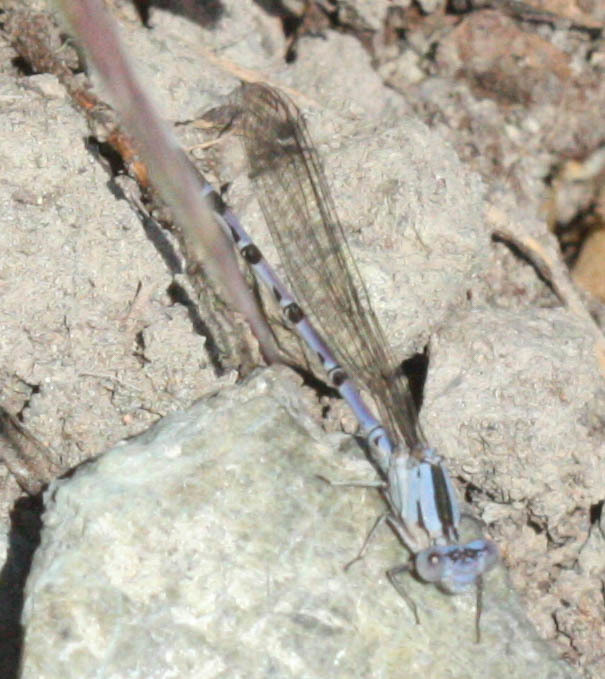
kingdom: Animalia
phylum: Arthropoda
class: Insecta
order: Odonata
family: Coenagrionidae
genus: Argia
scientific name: Argia vivida
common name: Vivid dancer
